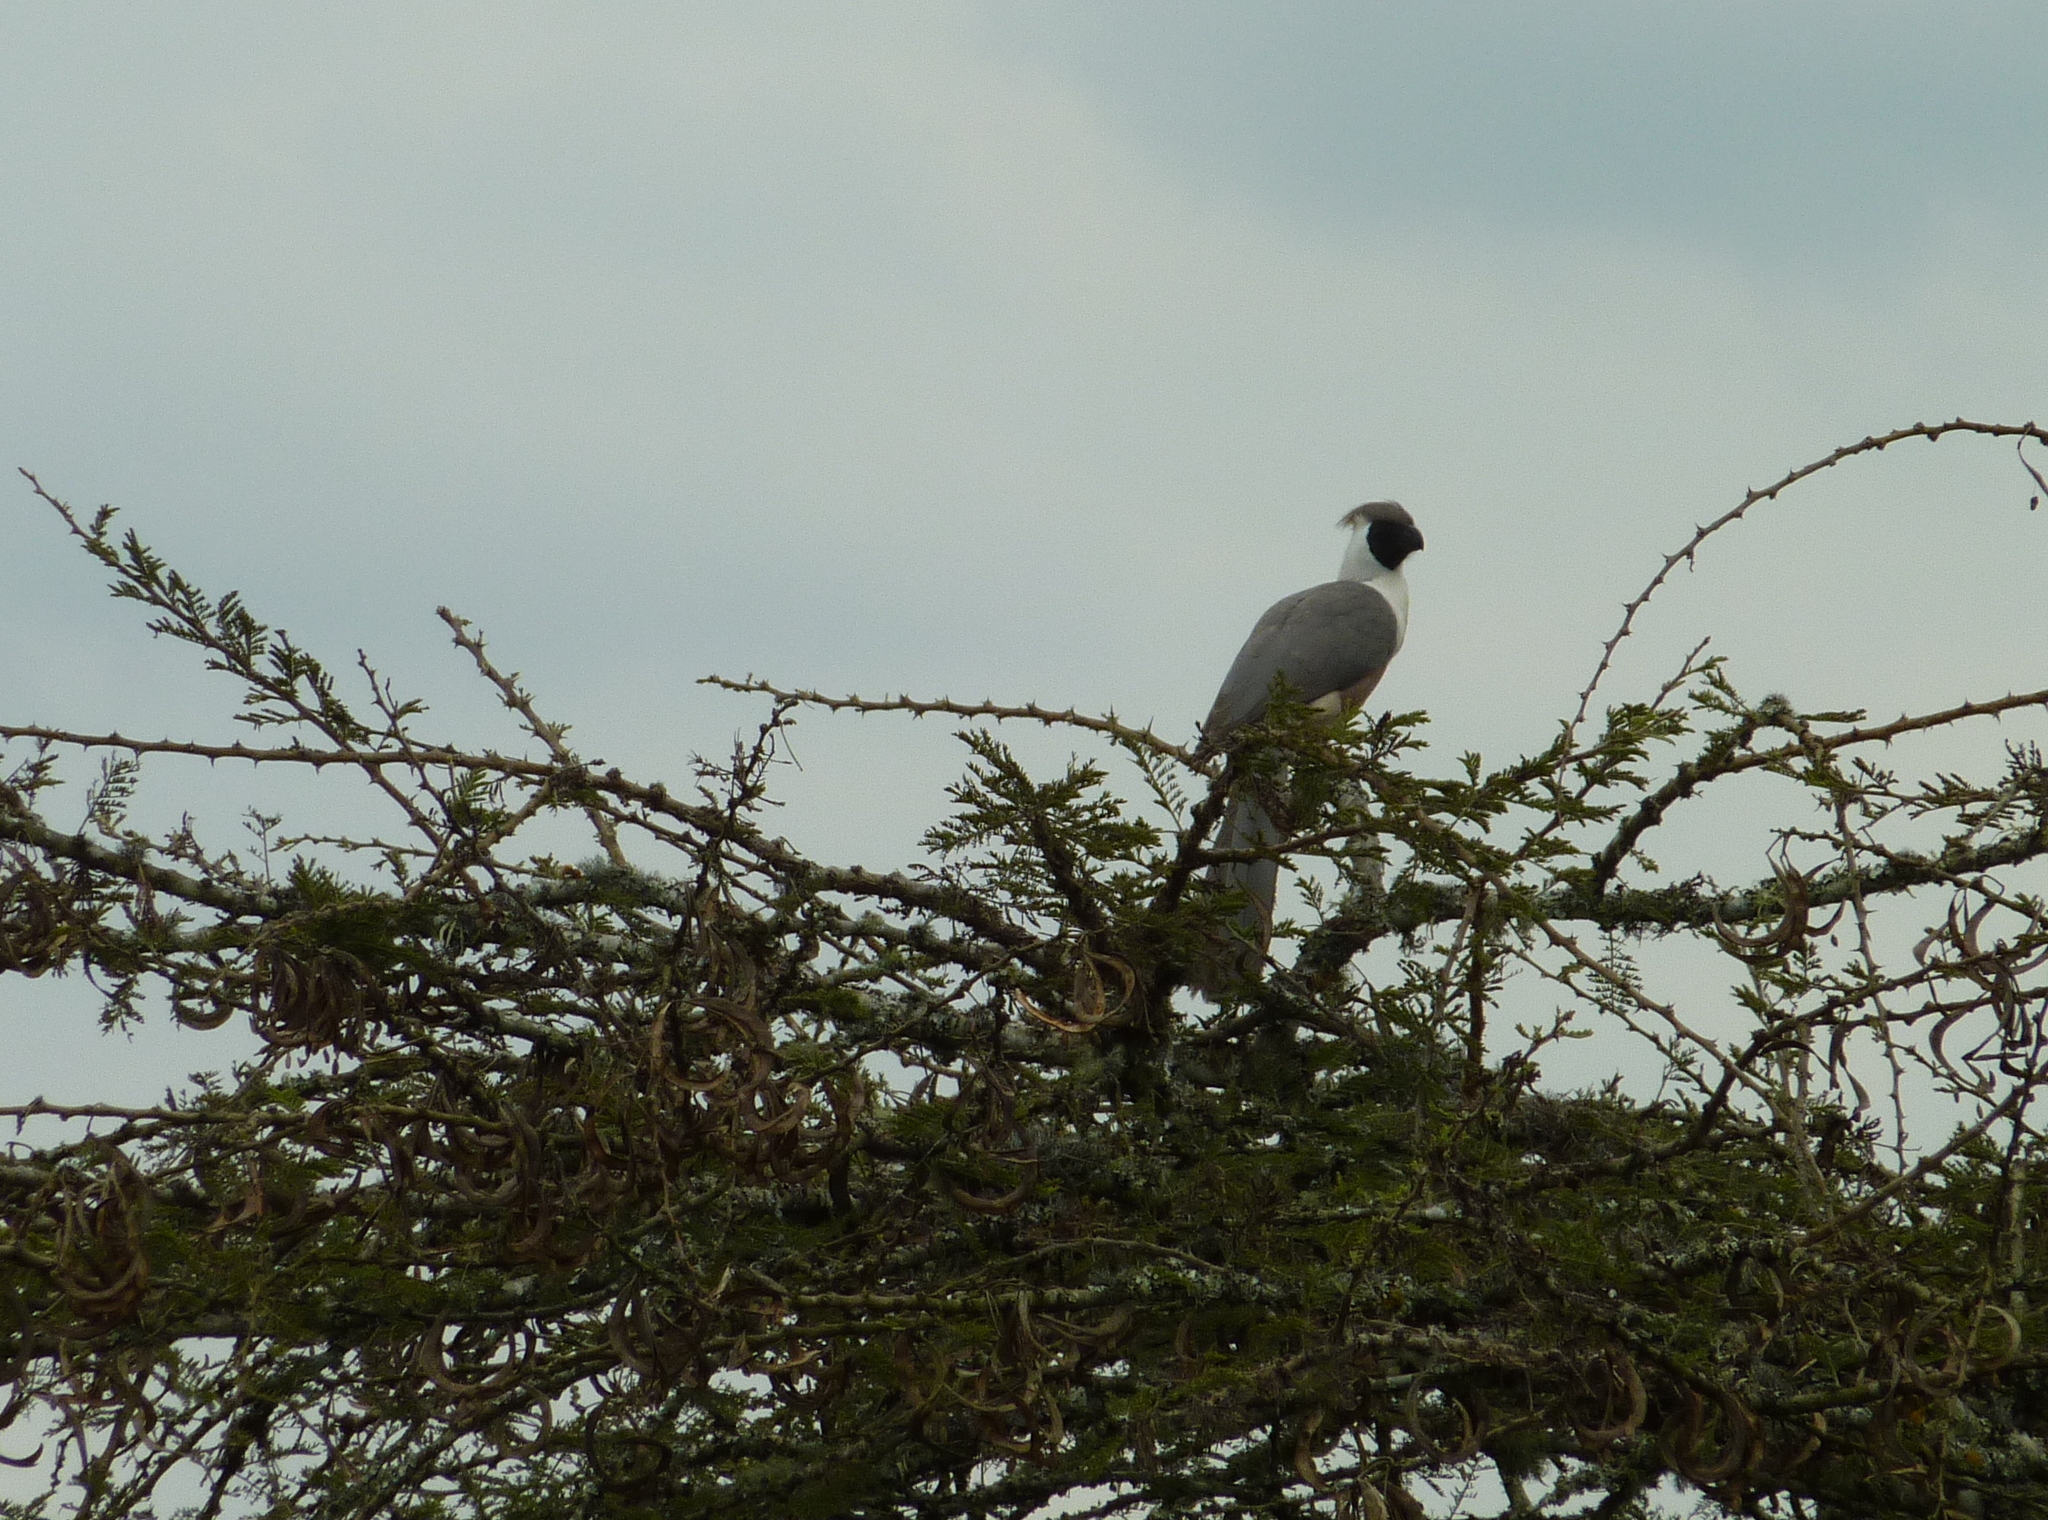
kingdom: Animalia
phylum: Chordata
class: Aves
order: Musophagiformes
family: Musophagidae
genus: Corythaixoides
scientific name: Corythaixoides personatus
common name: Bare-faced go-away-bird
